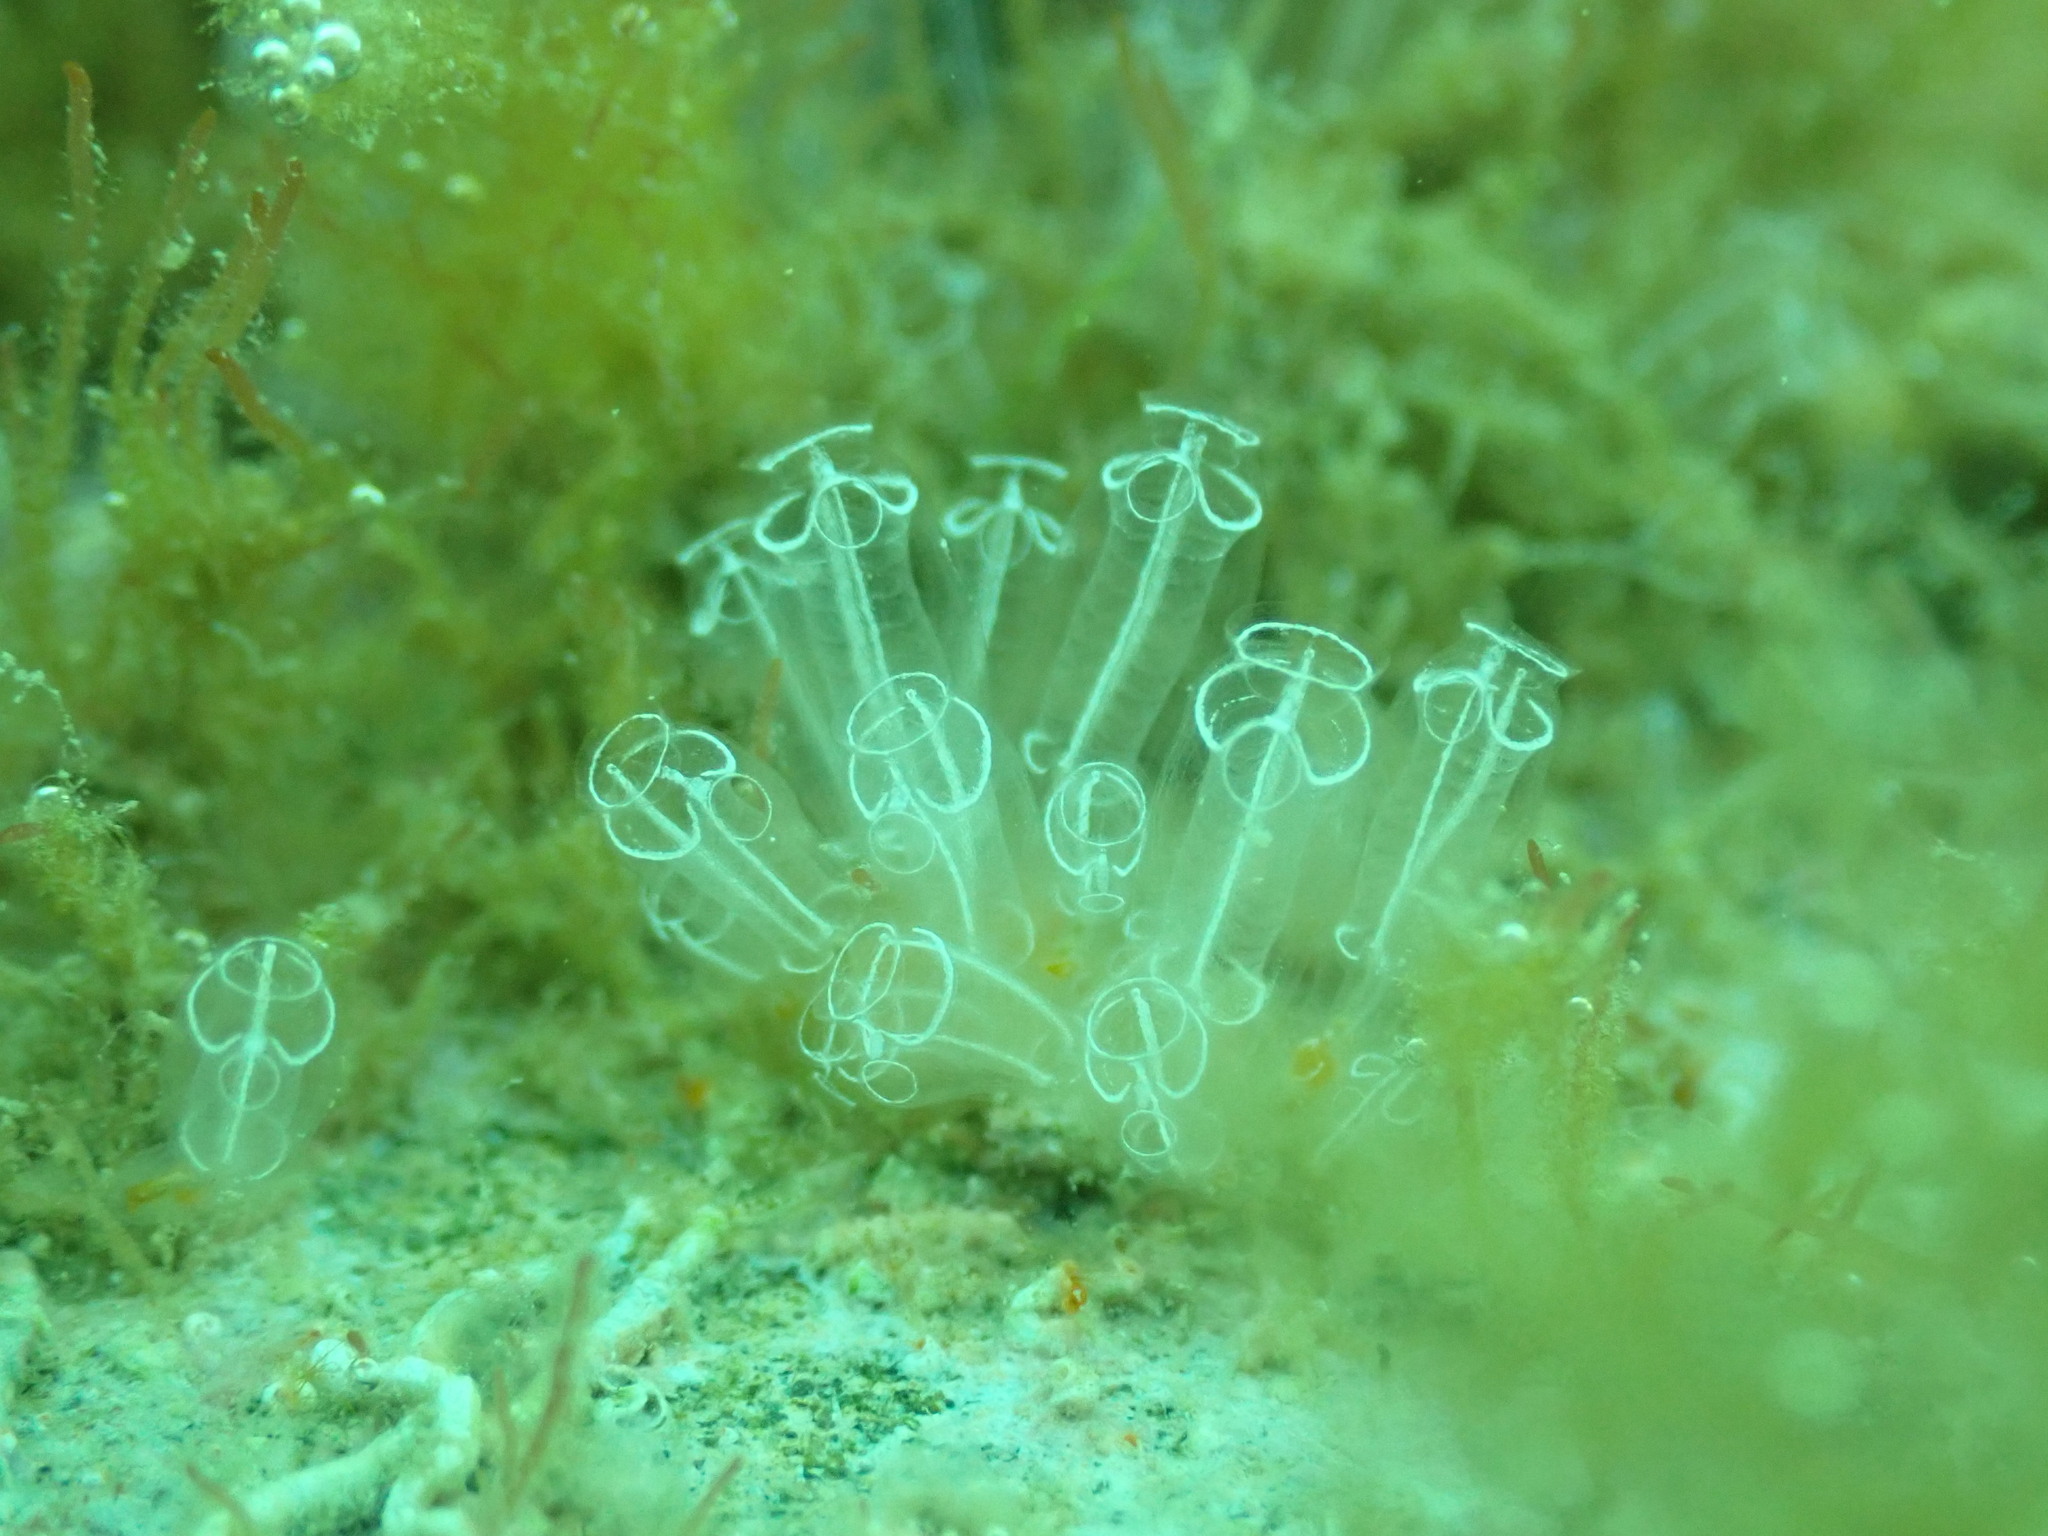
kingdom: Animalia
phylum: Chordata
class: Ascidiacea
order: Aplousobranchia
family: Clavelinidae
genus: Clavelina
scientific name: Clavelina lepadiformis
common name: Light bulb tunicate
